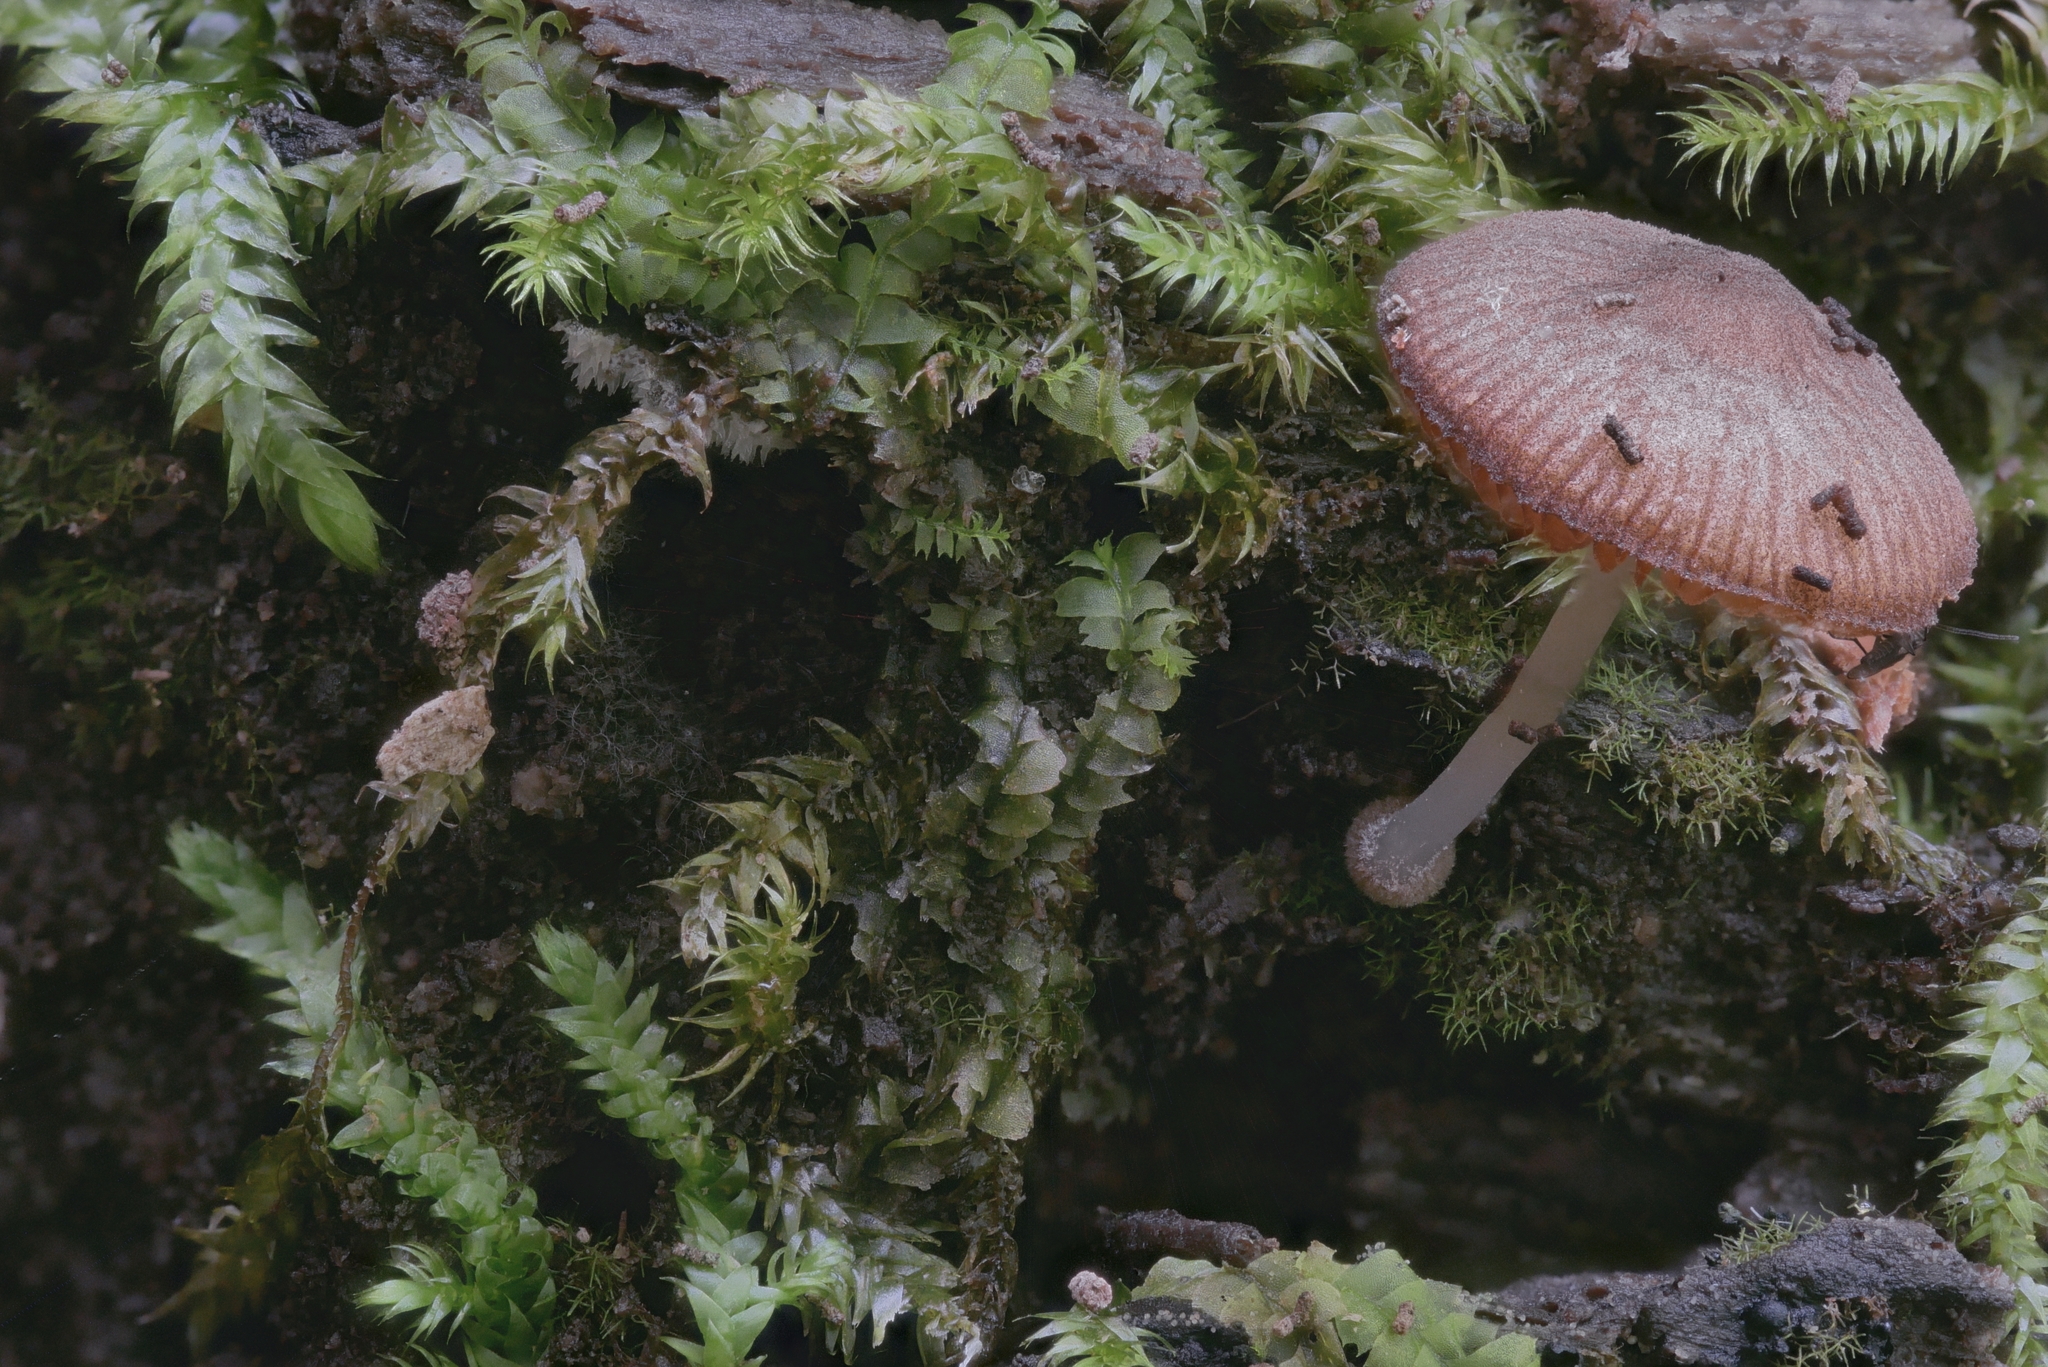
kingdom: Fungi
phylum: Basidiomycota
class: Agaricomycetes
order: Agaricales
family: Pluteaceae
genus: Pluteus
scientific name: Pluteus podospileus
